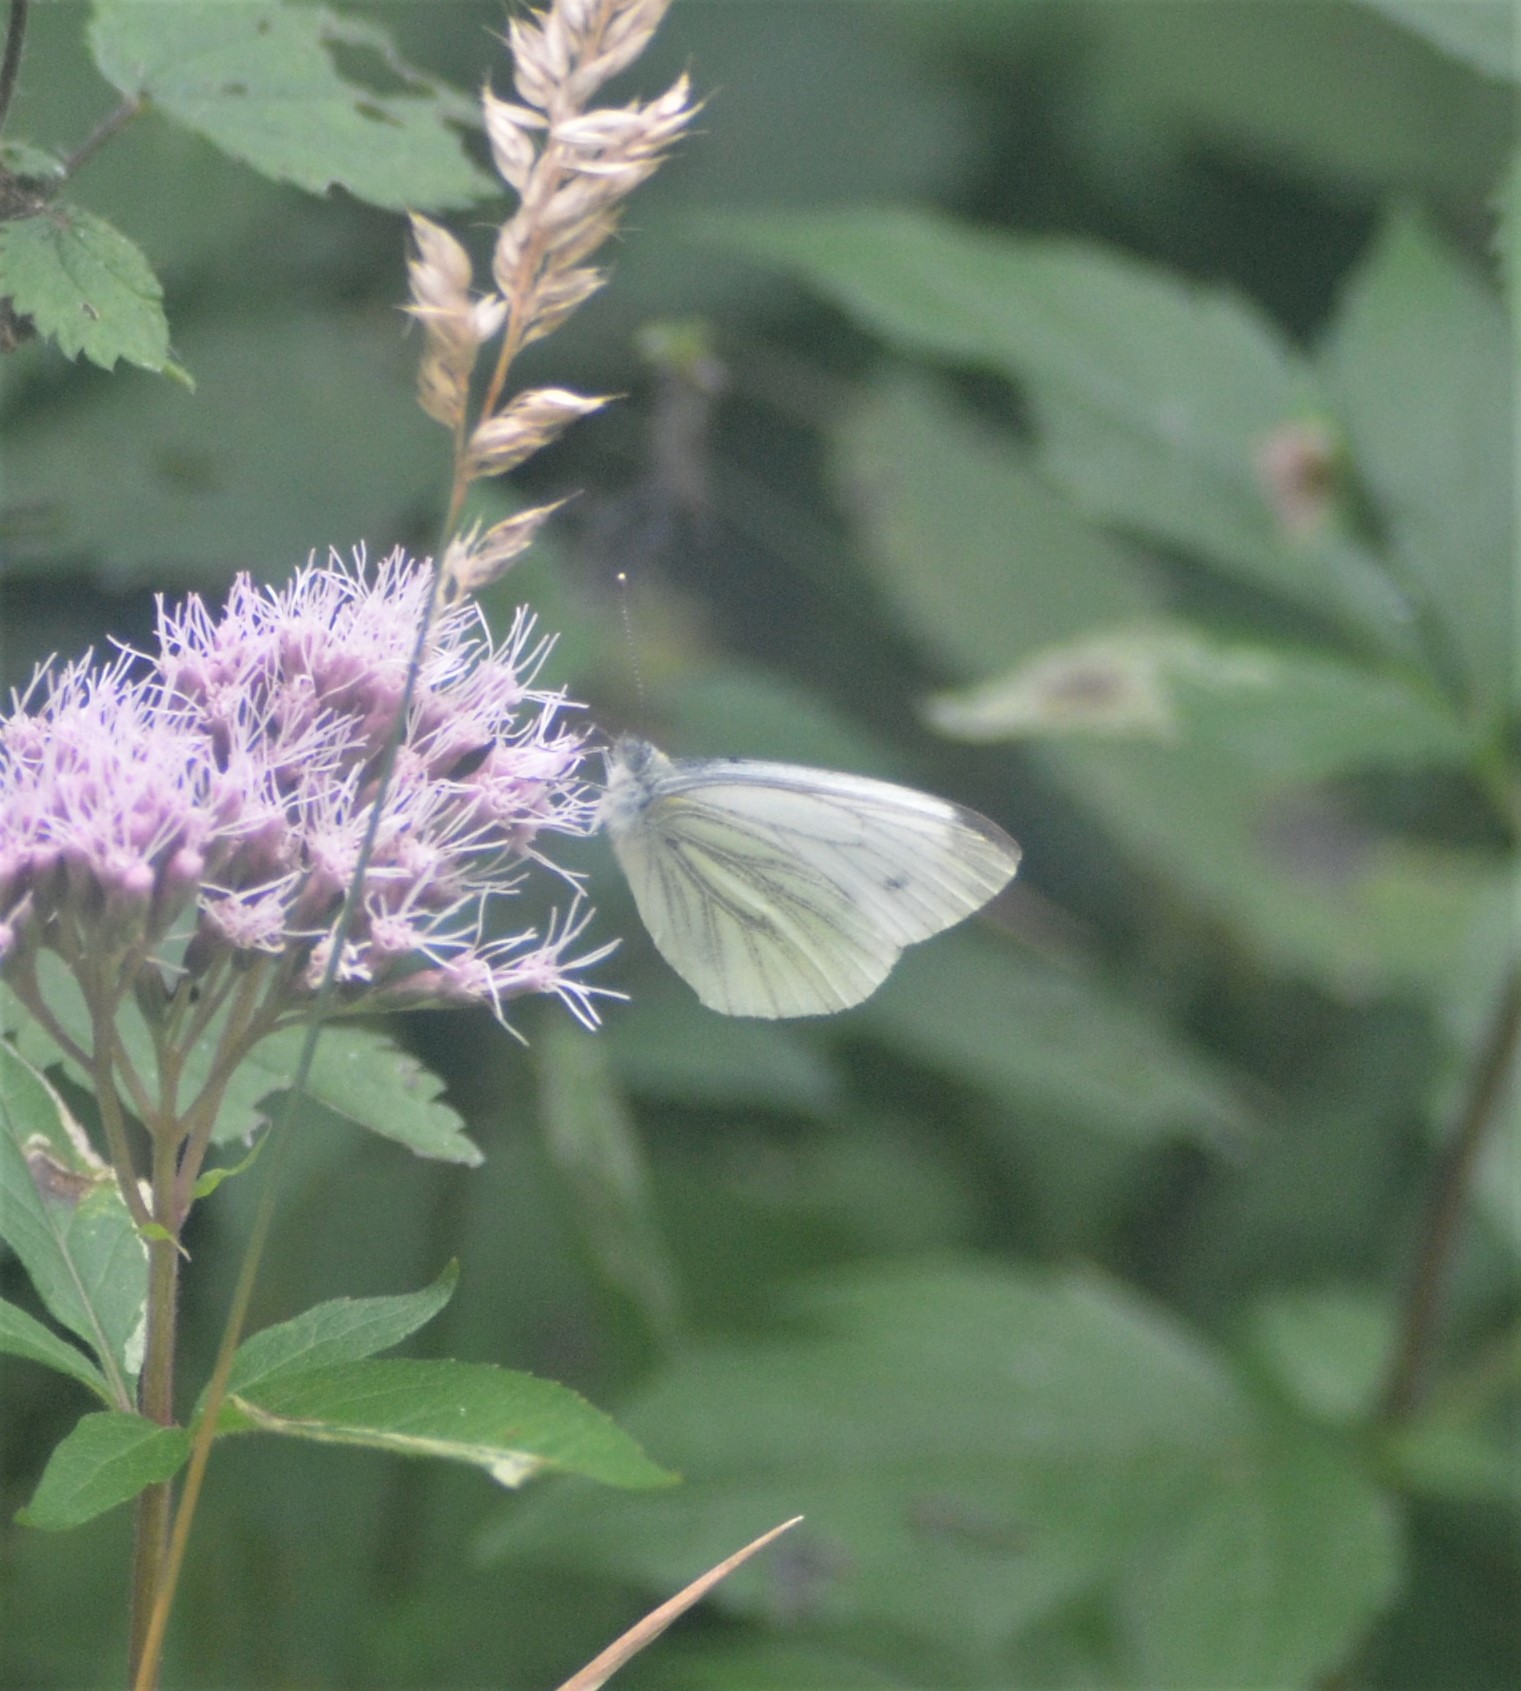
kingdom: Animalia
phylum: Arthropoda
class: Insecta
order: Lepidoptera
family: Pieridae
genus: Pieris
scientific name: Pieris napi
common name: Green-veined white
